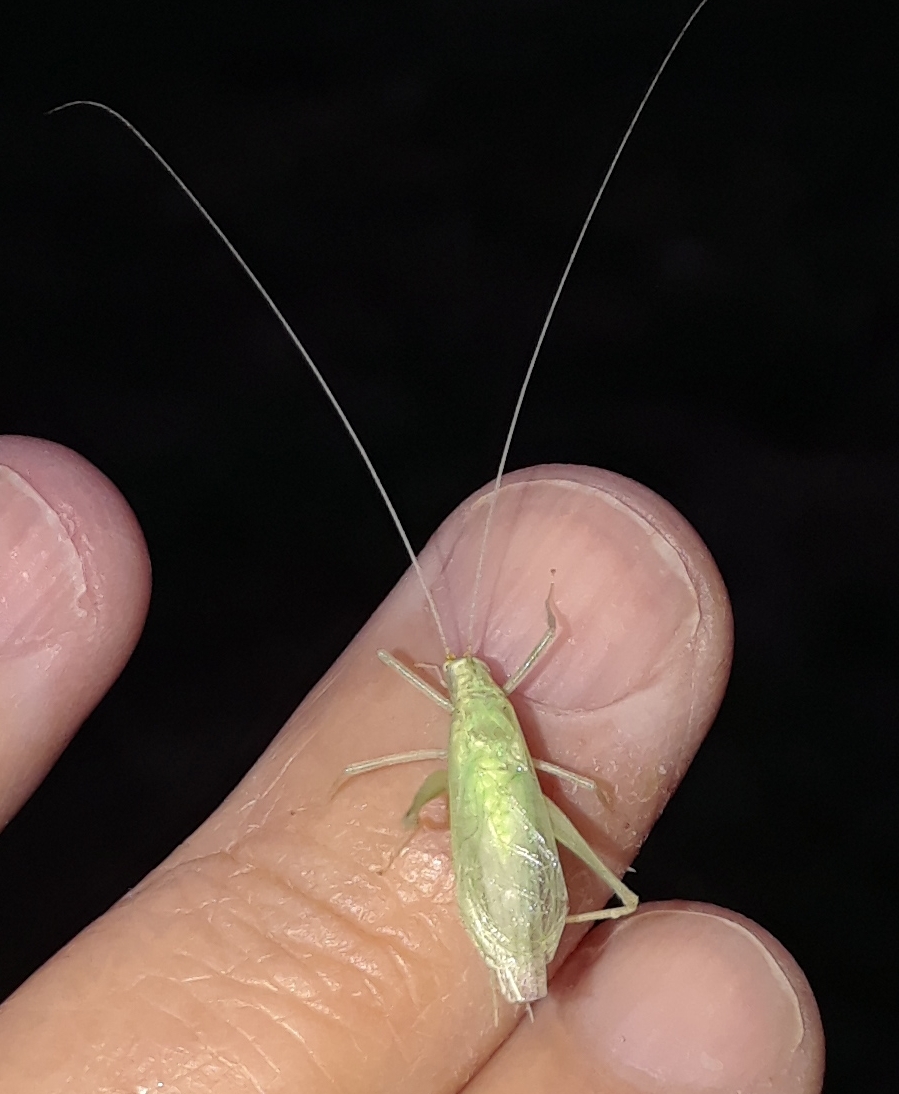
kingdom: Animalia
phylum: Arthropoda
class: Insecta
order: Orthoptera
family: Gryllidae
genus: Oecanthus
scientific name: Oecanthus quadripunctatus
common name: Four-spotted tree cricket
